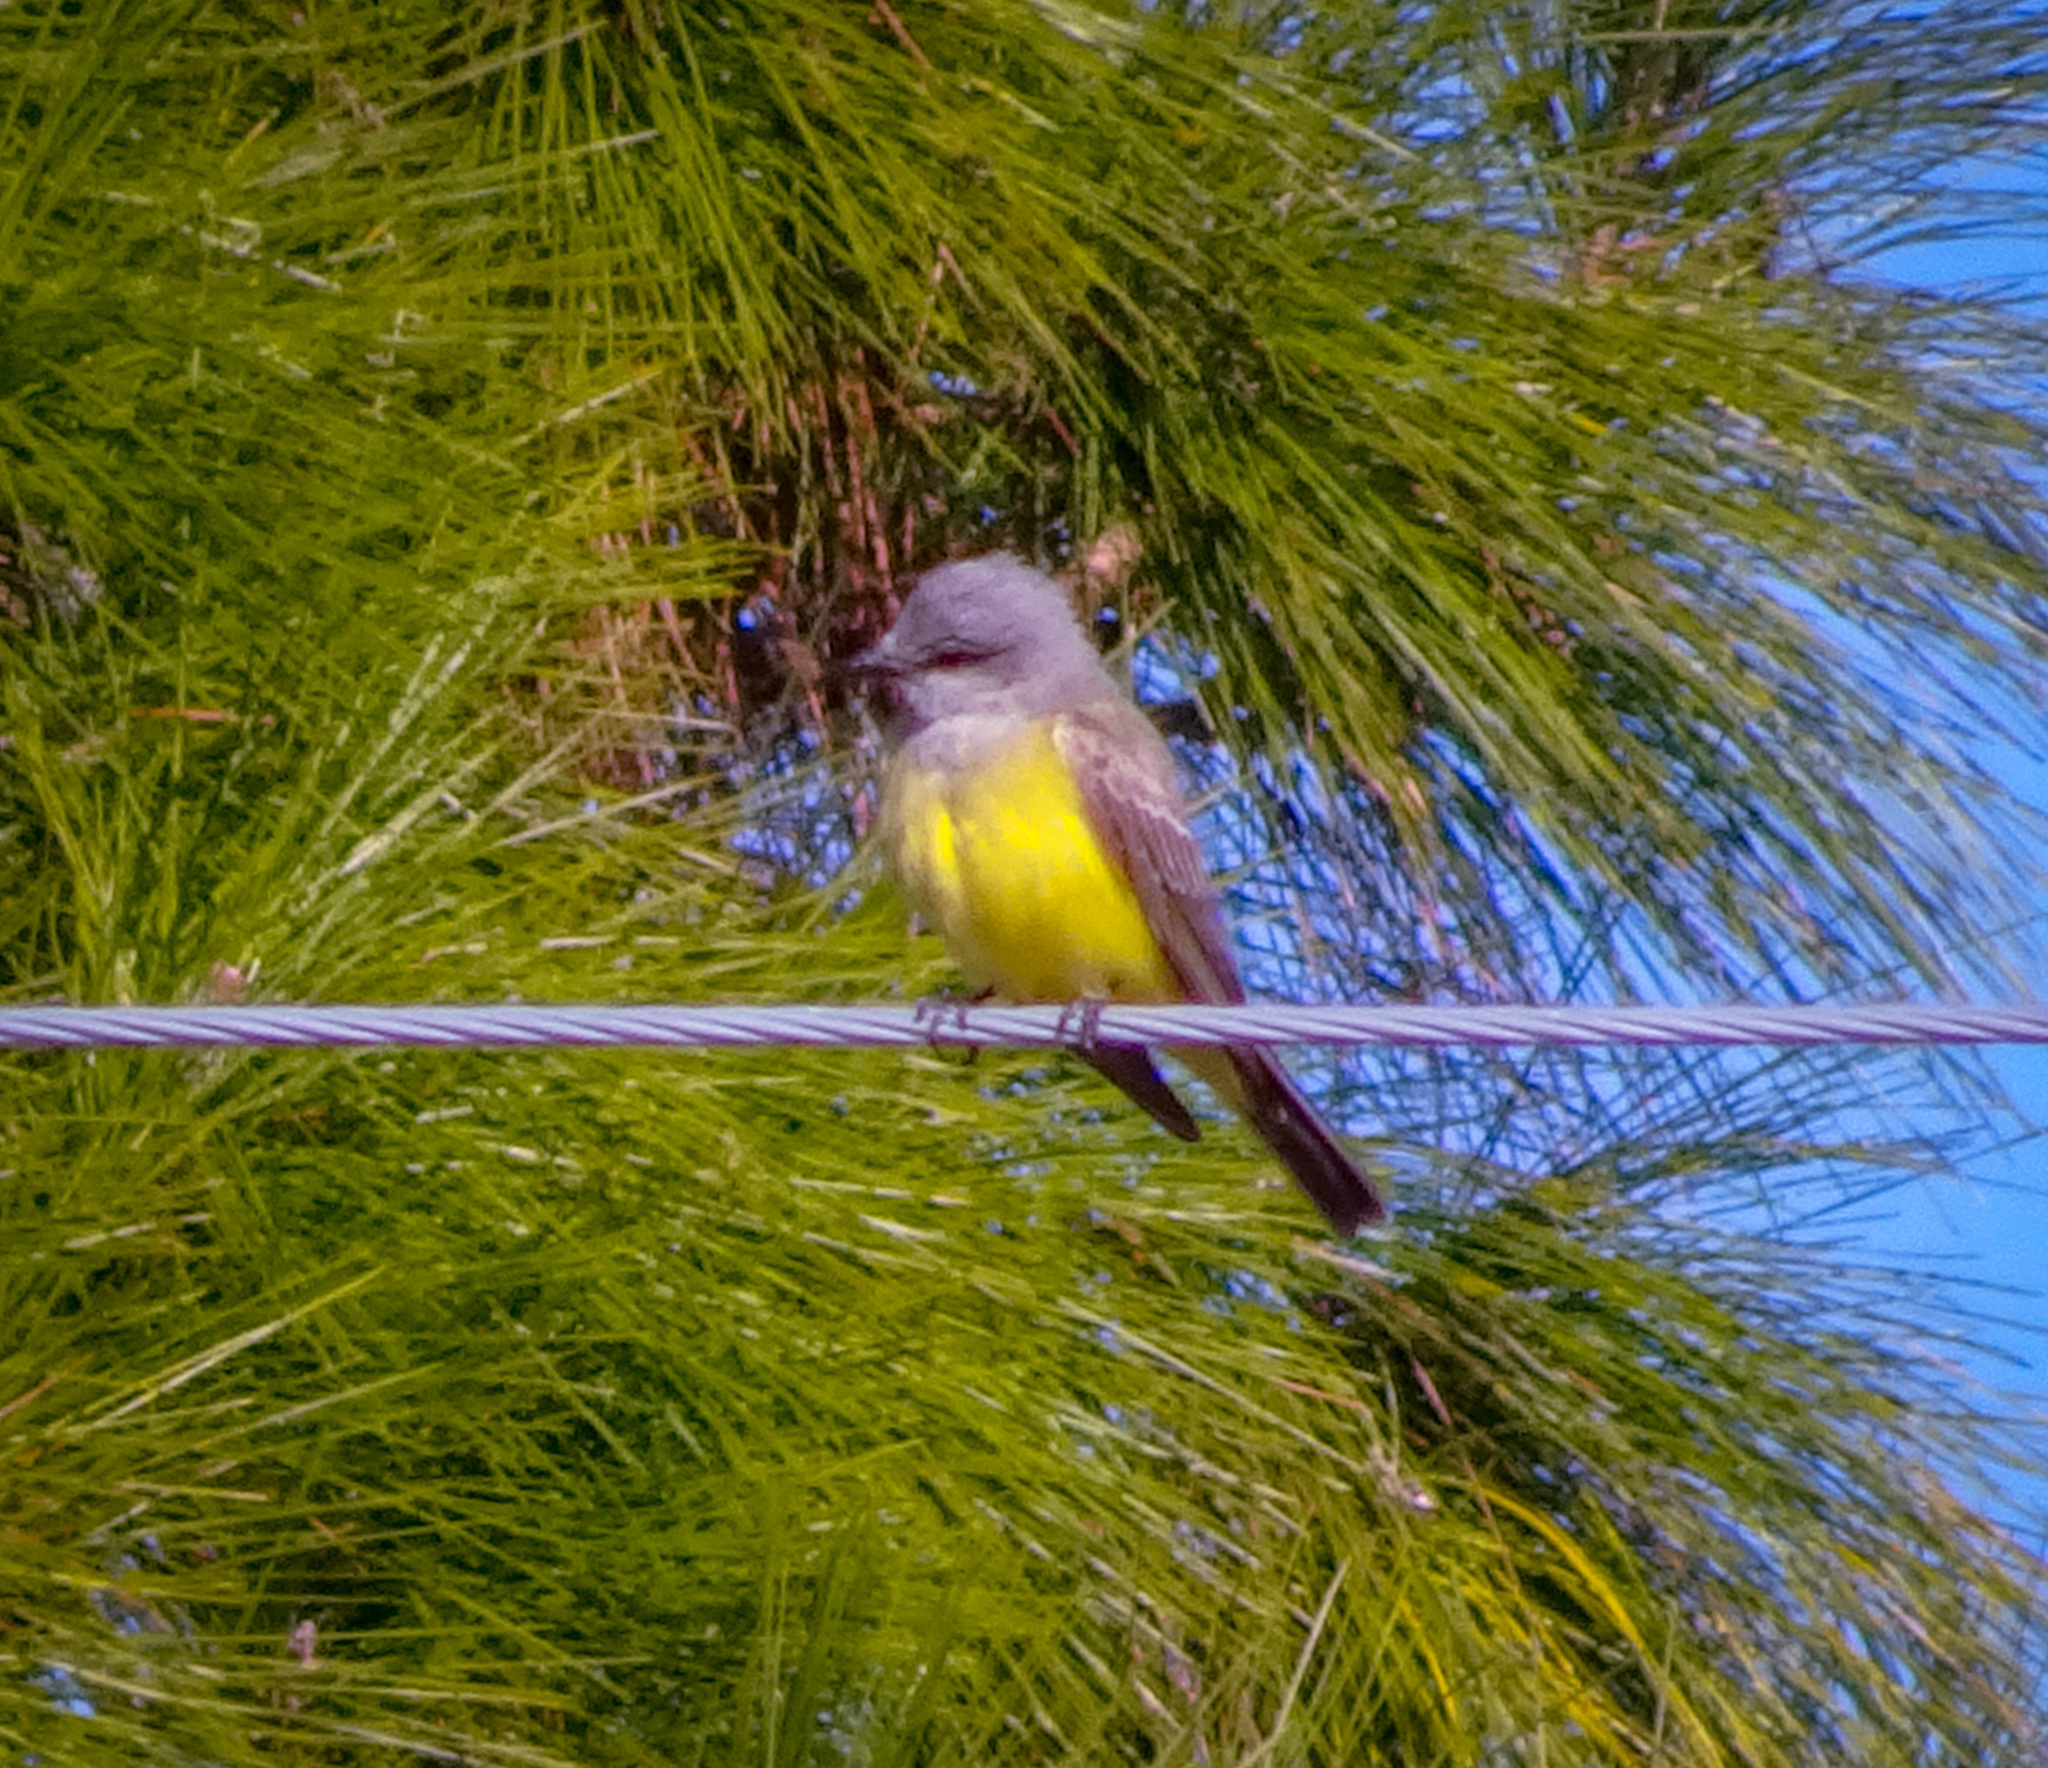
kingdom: Animalia
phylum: Chordata
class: Aves
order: Passeriformes
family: Tyrannidae
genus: Tyrannus
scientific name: Tyrannus verticalis
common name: Western kingbird
